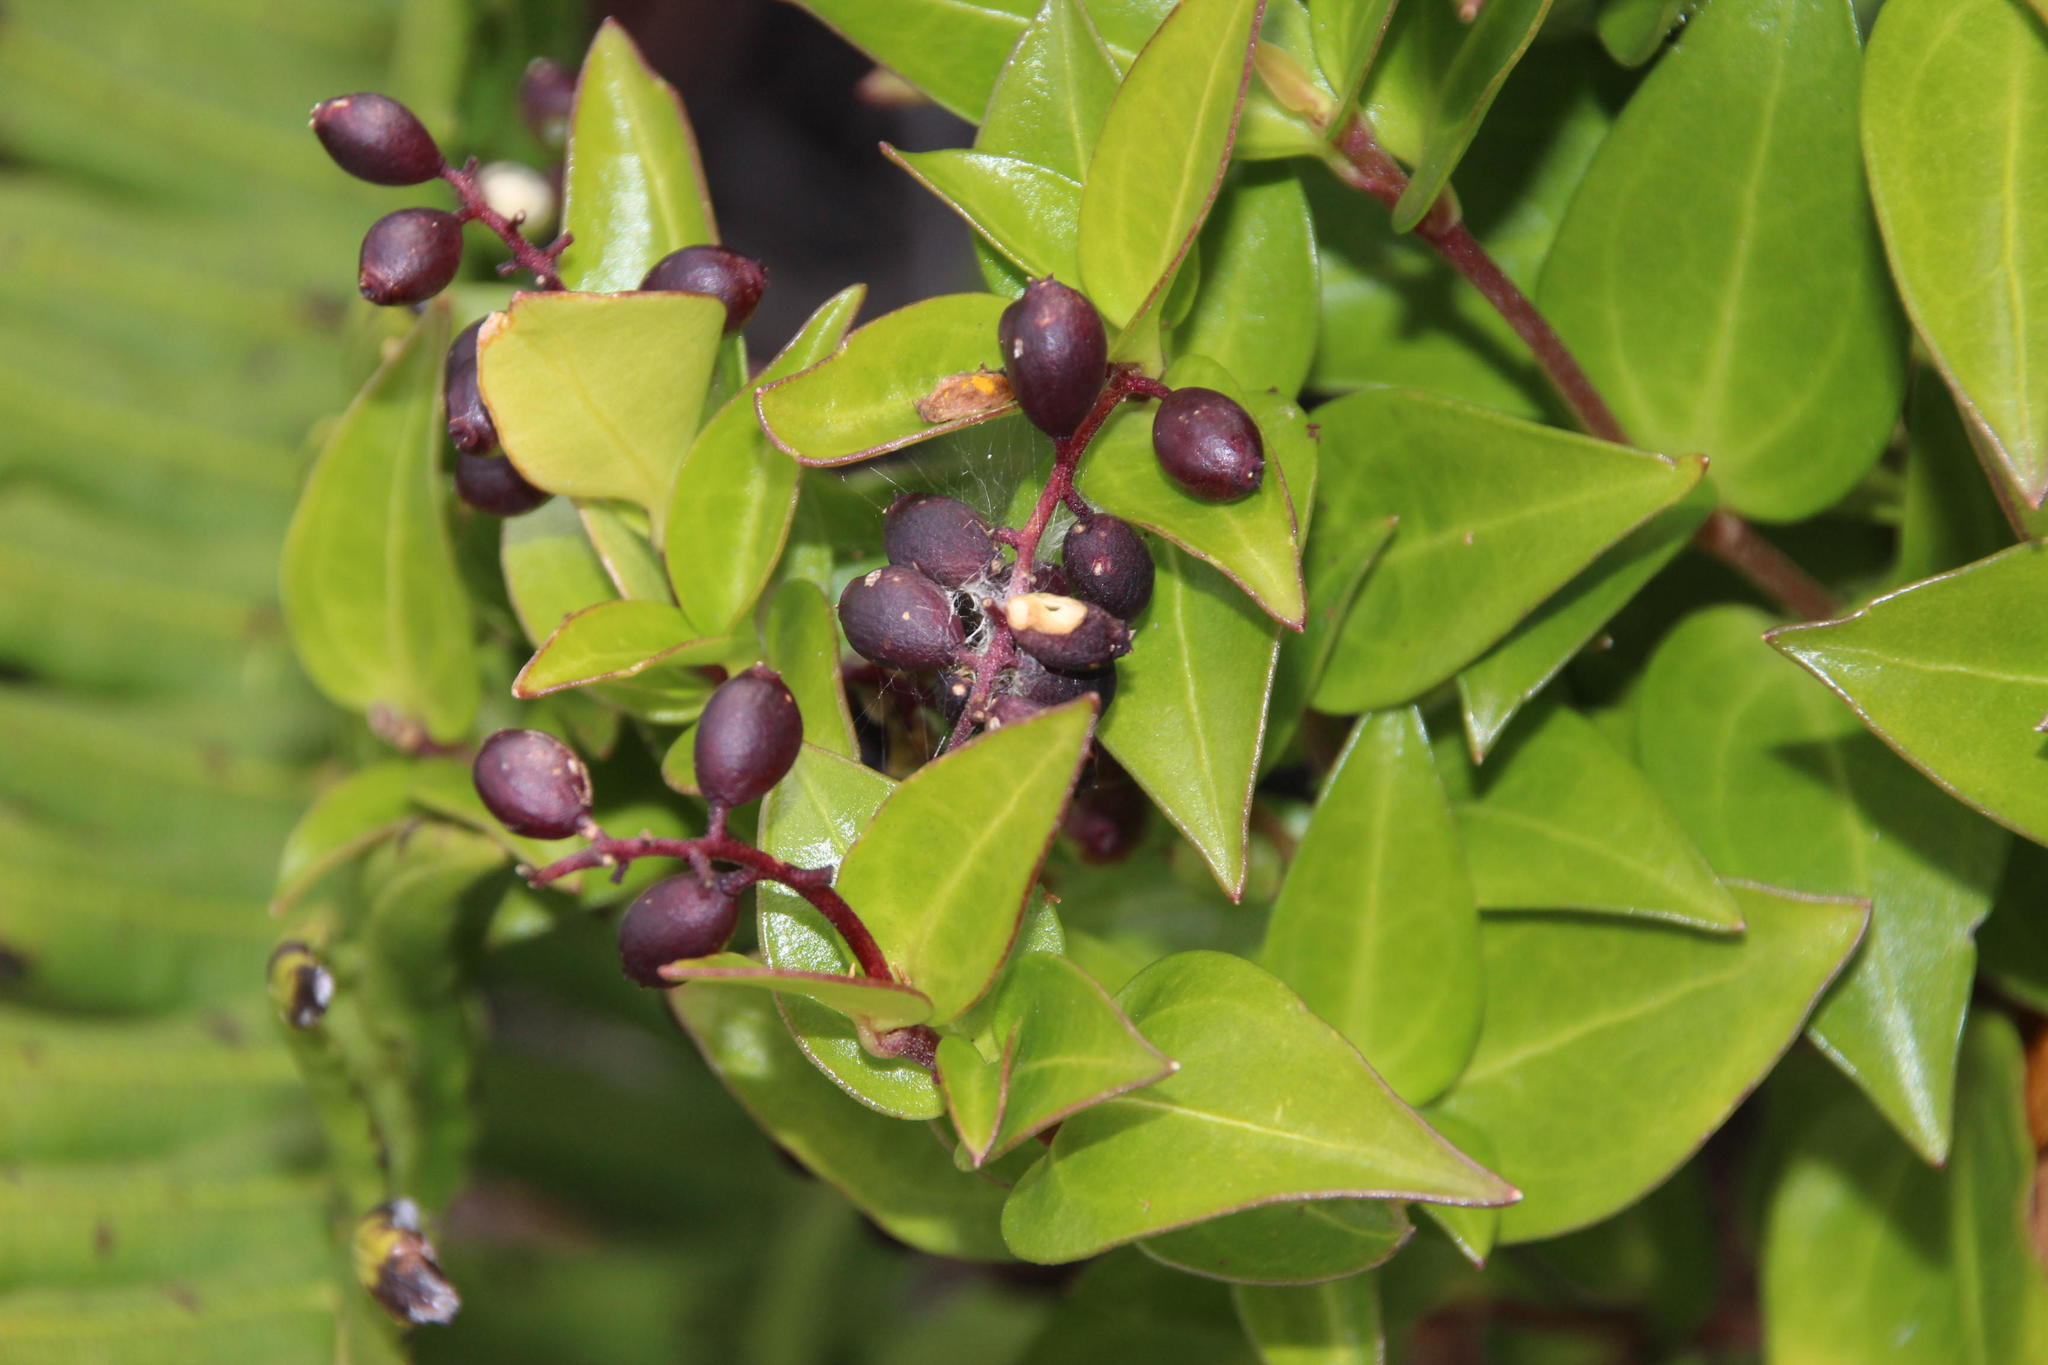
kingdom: Plantae
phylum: Tracheophyta
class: Magnoliopsida
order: Apiales
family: Griseliniaceae
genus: Griselinia
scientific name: Griselinia racemosa
